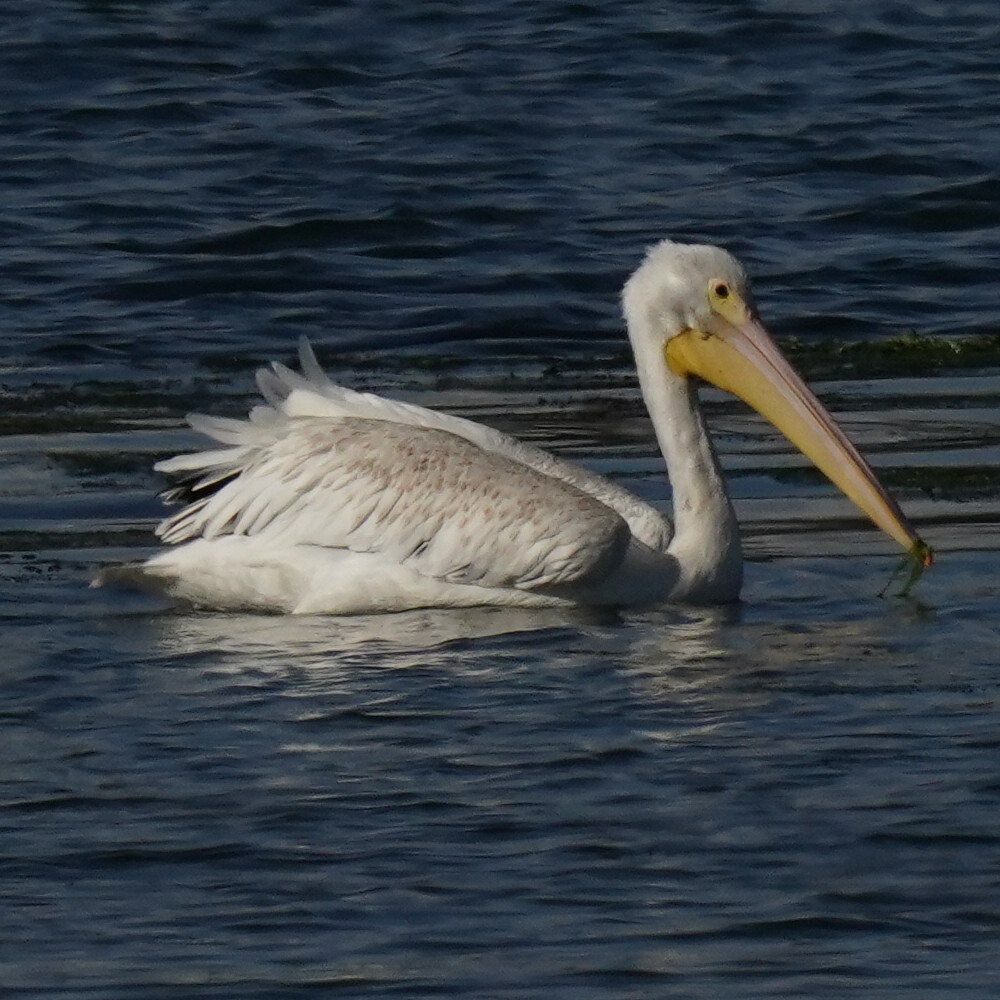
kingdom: Animalia
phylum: Chordata
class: Aves
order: Pelecaniformes
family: Pelecanidae
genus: Pelecanus
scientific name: Pelecanus erythrorhynchos
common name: American white pelican
